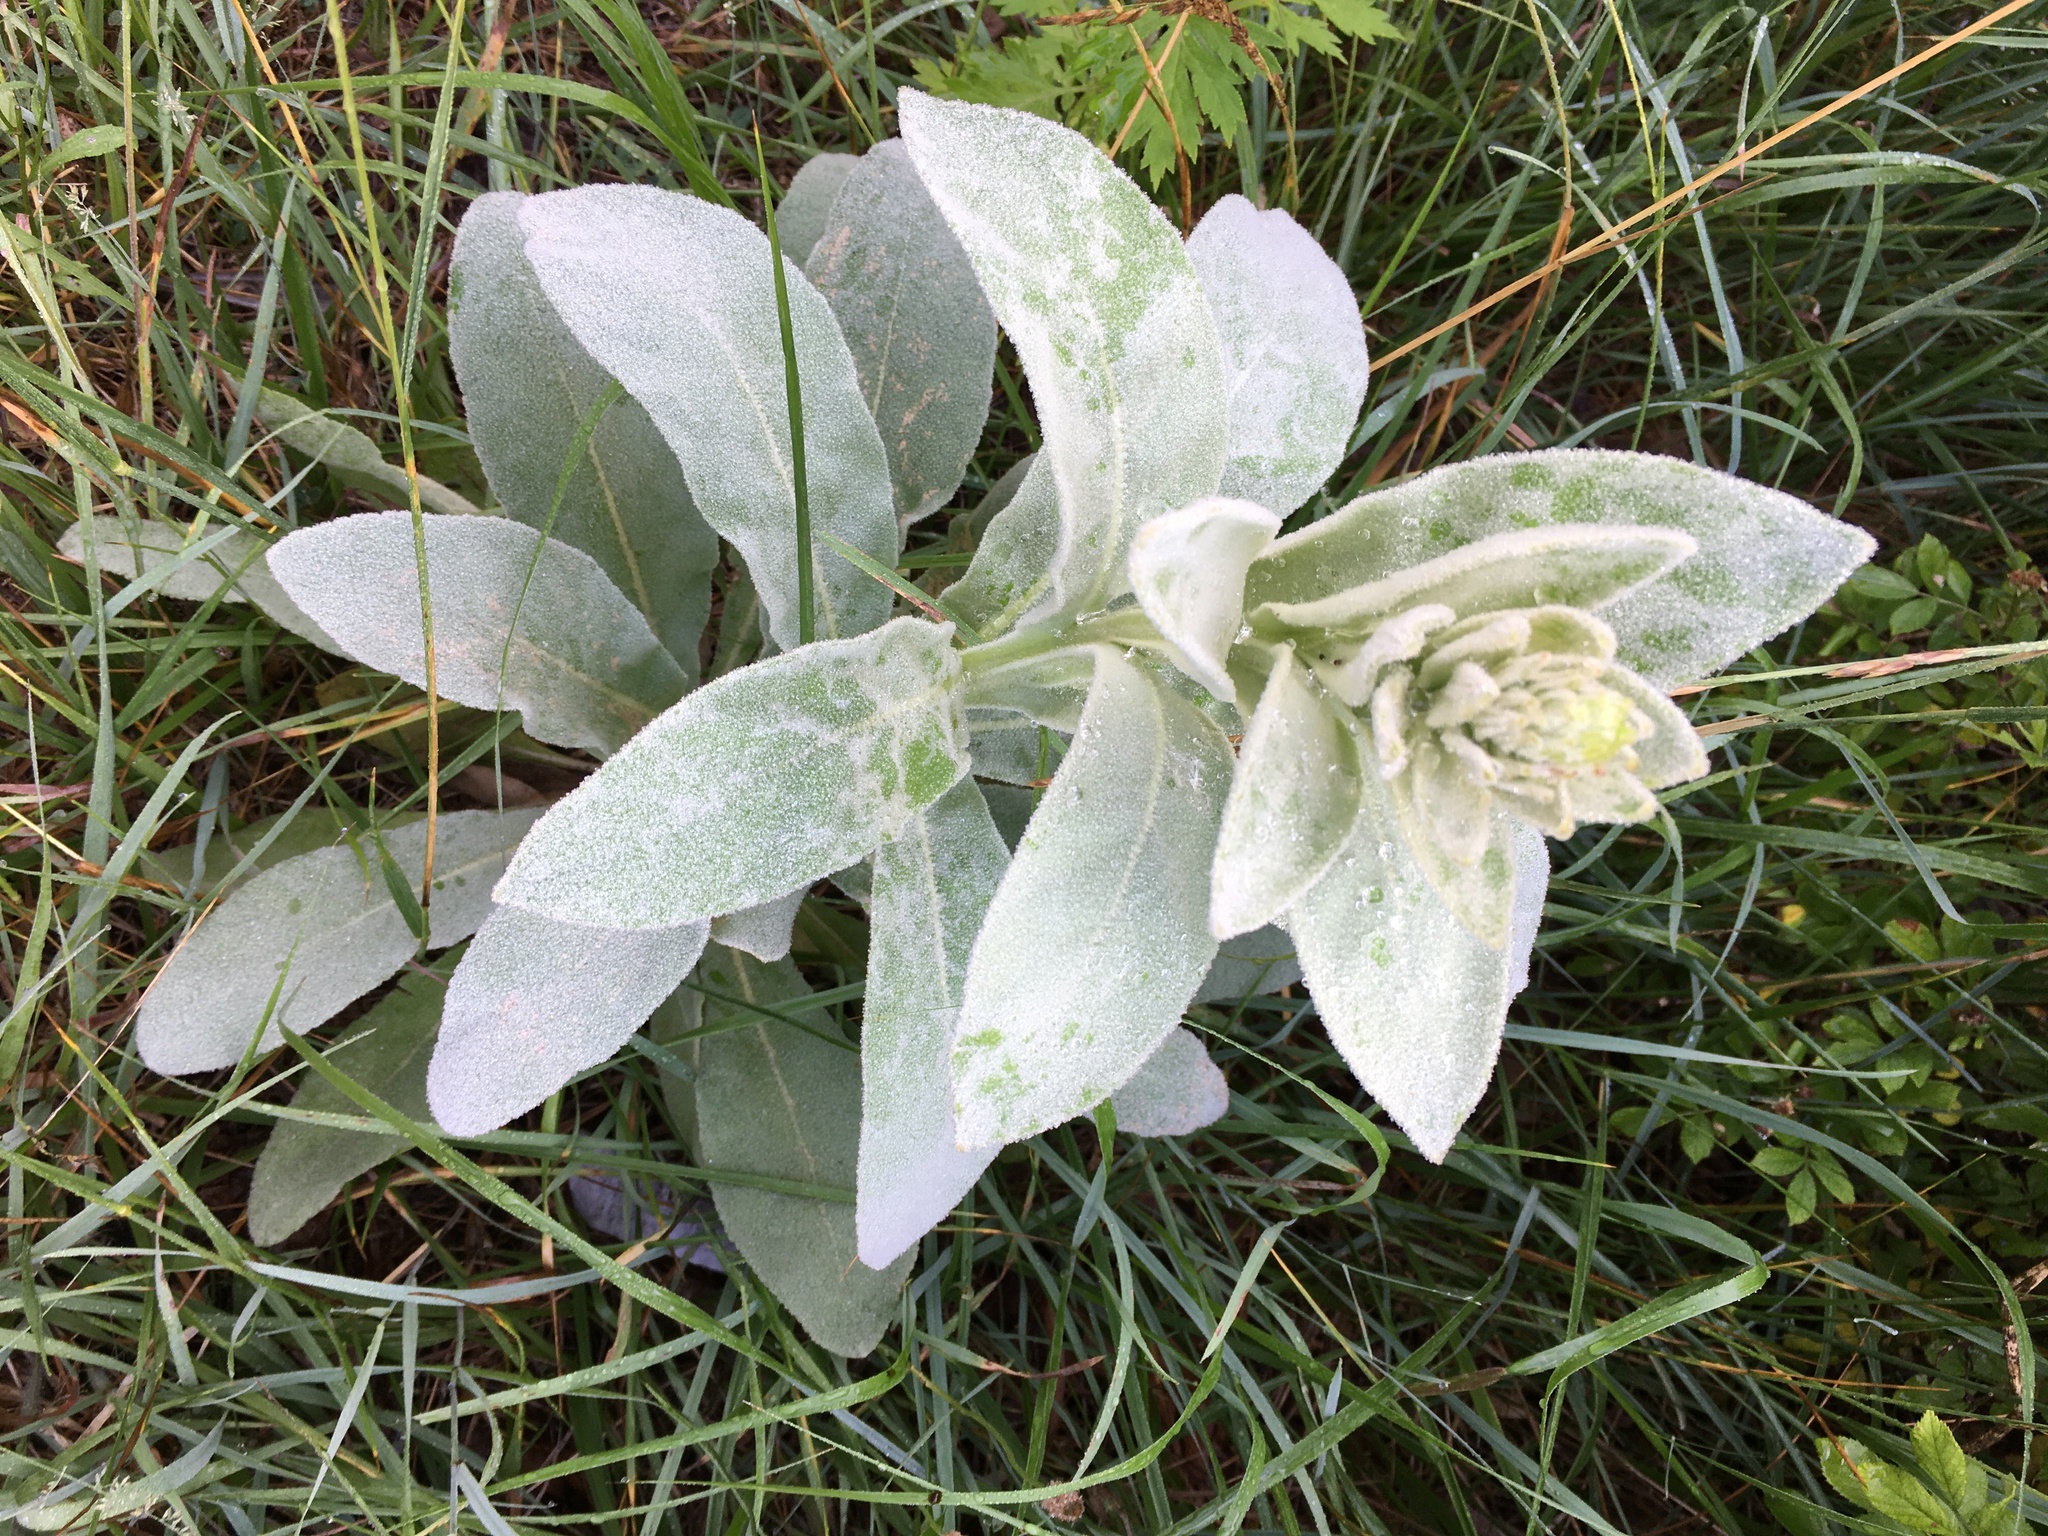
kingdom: Plantae
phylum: Tracheophyta
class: Magnoliopsida
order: Lamiales
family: Scrophulariaceae
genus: Verbascum
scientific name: Verbascum thapsus
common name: Common mullein
